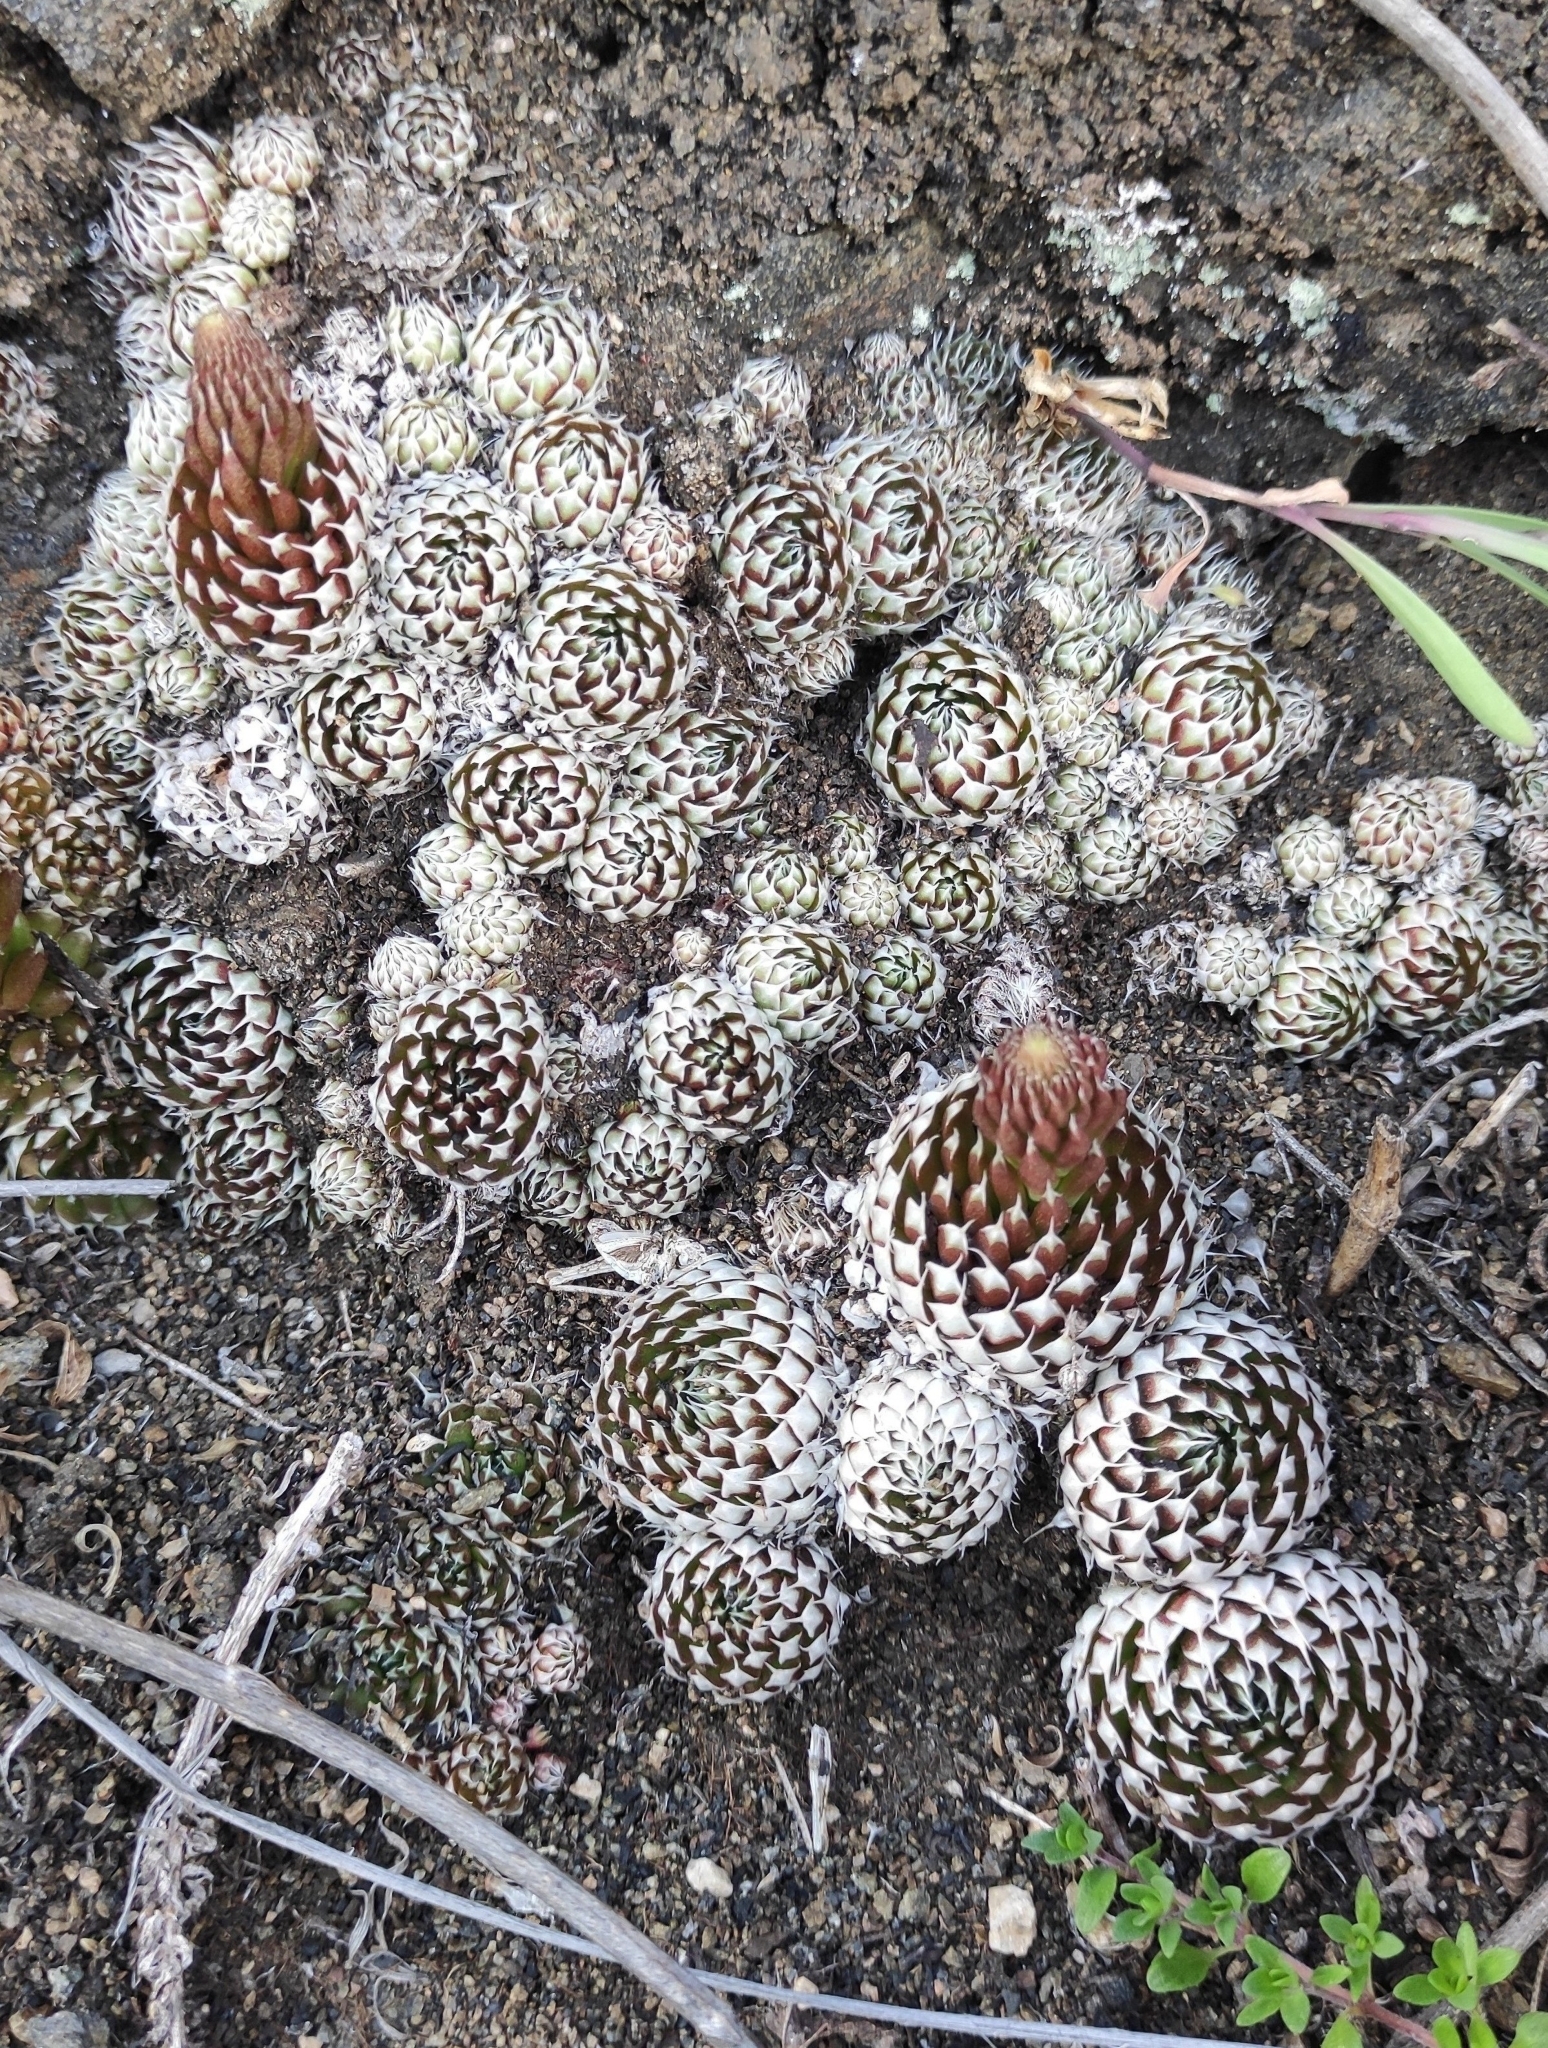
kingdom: Plantae
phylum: Tracheophyta
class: Magnoliopsida
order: Saxifragales
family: Crassulaceae
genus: Orostachys
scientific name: Orostachys spinosa
